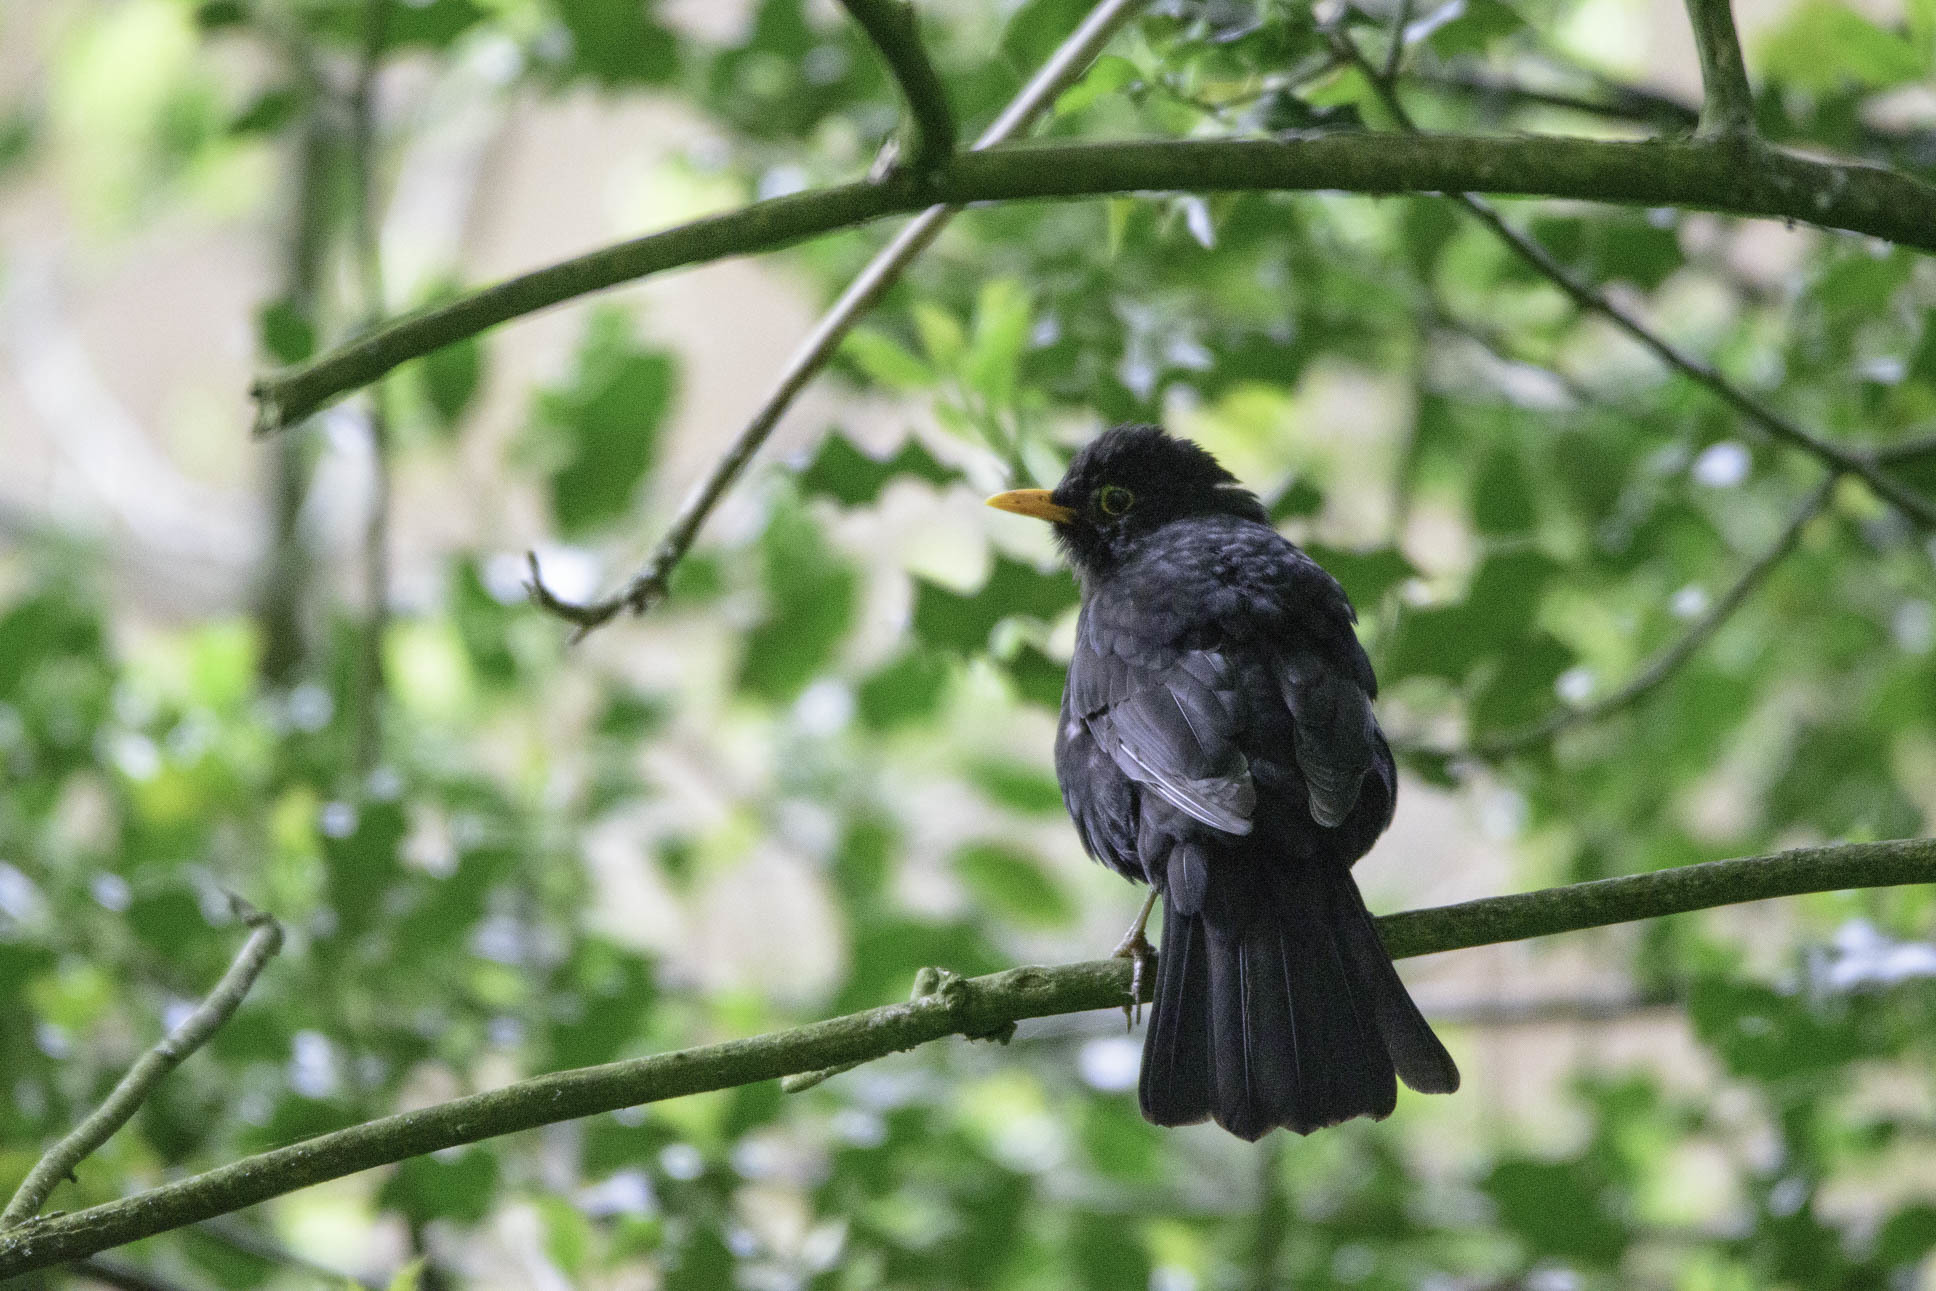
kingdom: Animalia
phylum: Chordata
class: Aves
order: Passeriformes
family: Turdidae
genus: Turdus
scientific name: Turdus merula
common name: Common blackbird
